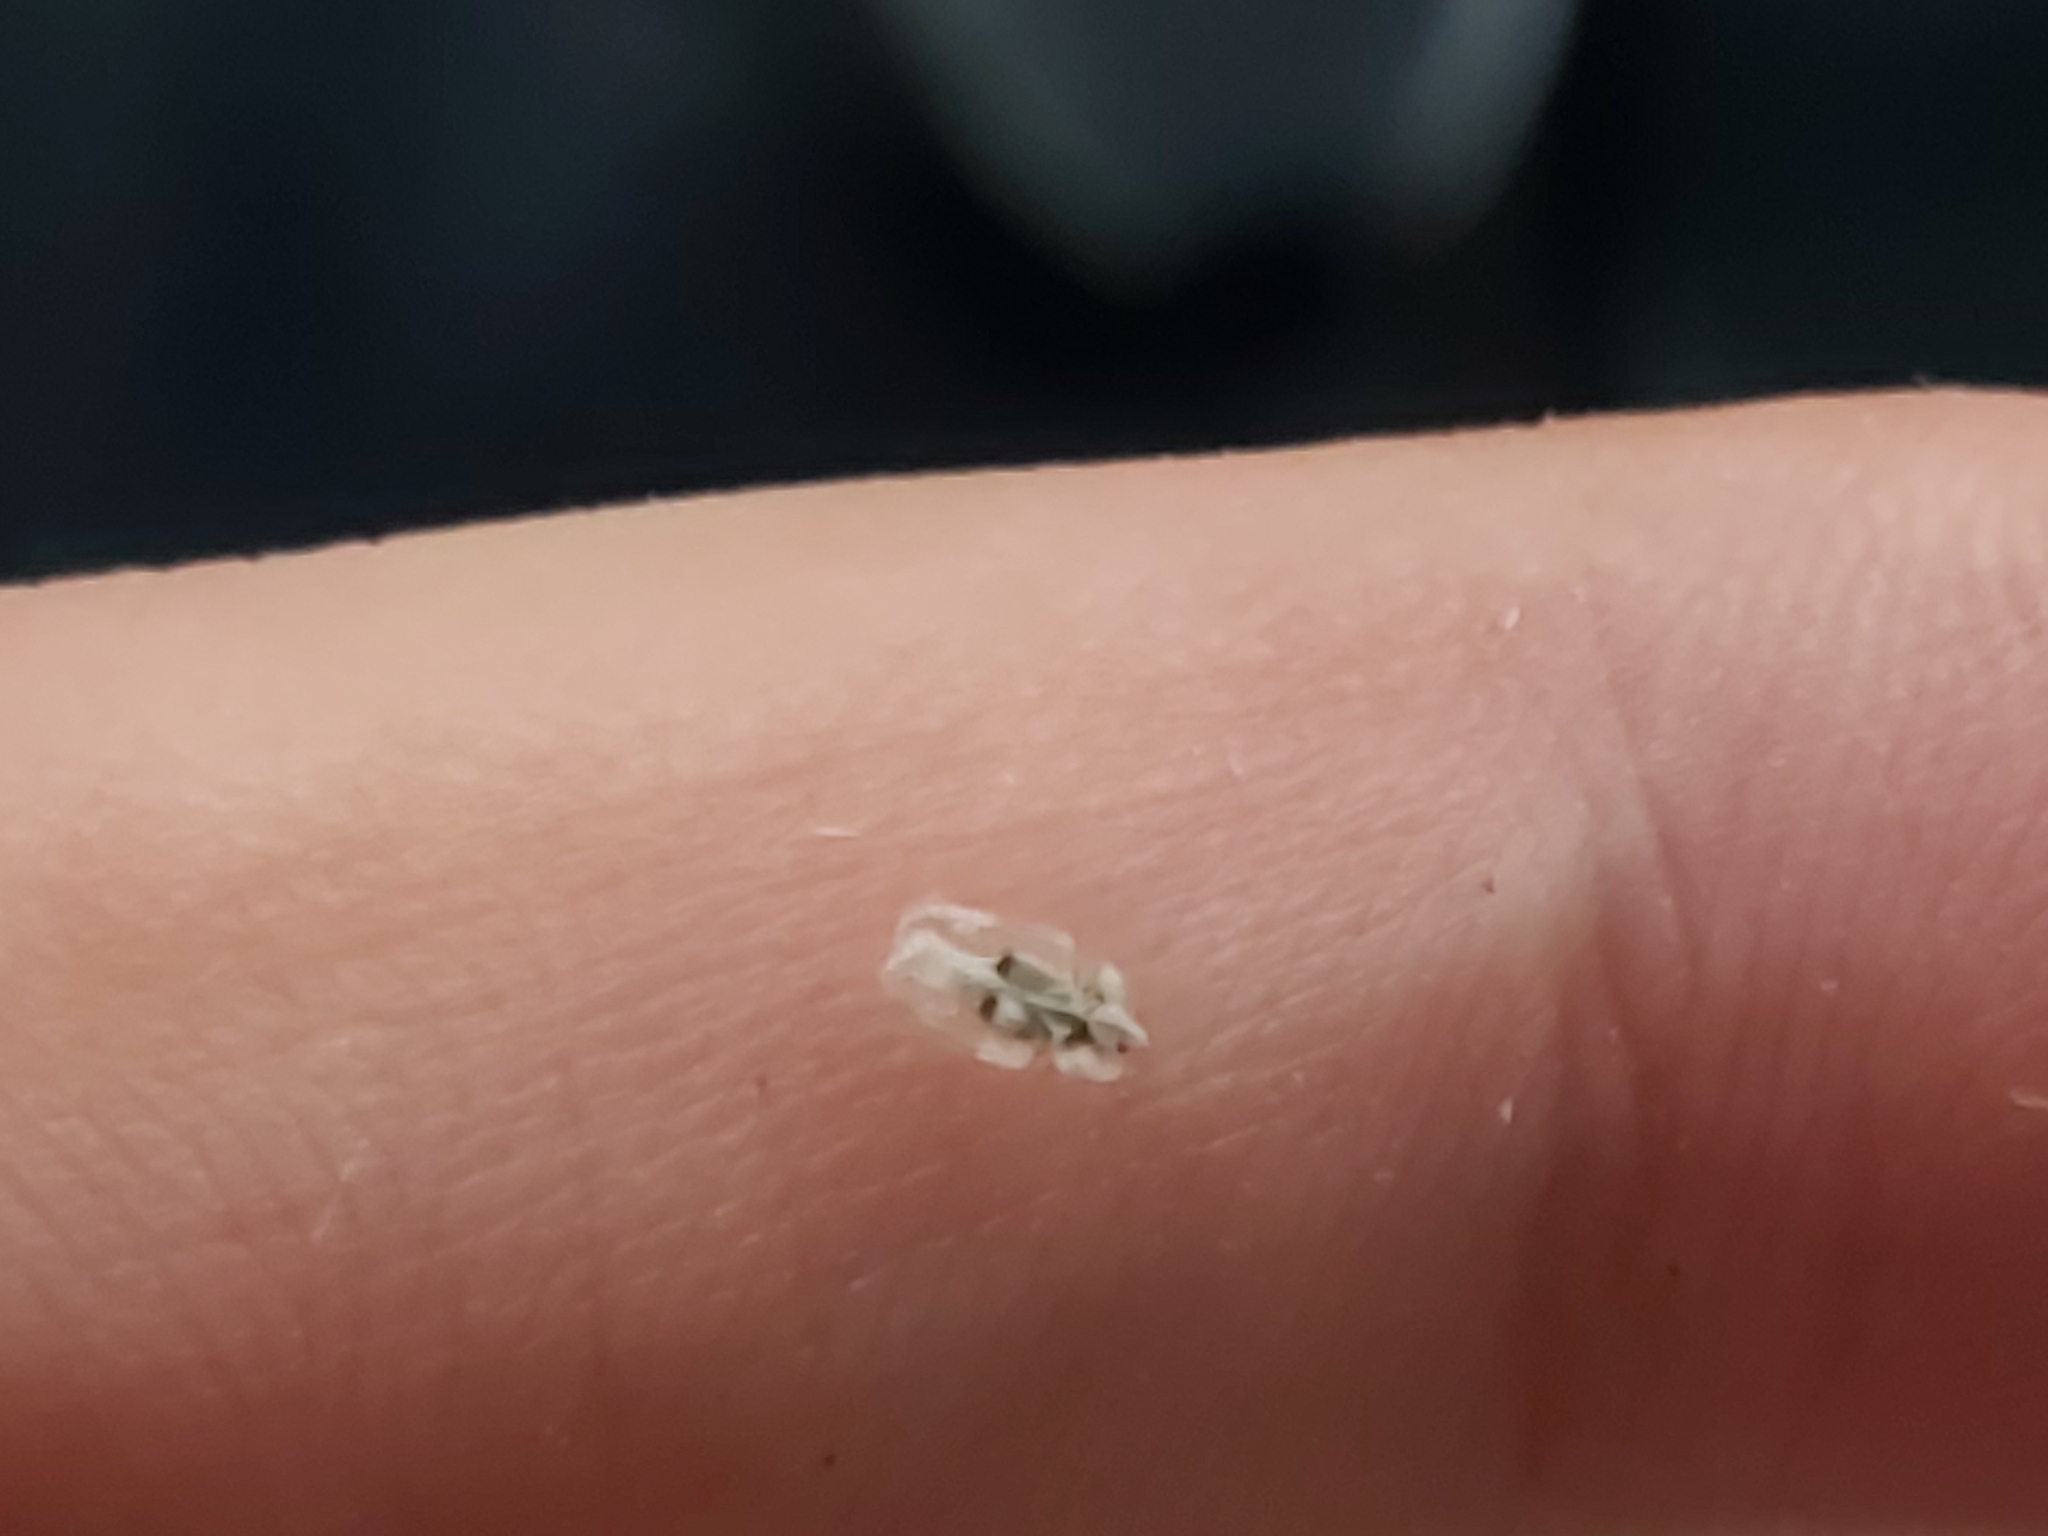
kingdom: Animalia
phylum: Arthropoda
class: Insecta
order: Hemiptera
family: Tingidae
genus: Corythucha
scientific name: Corythucha ciliata
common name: Sycamore lace bug
